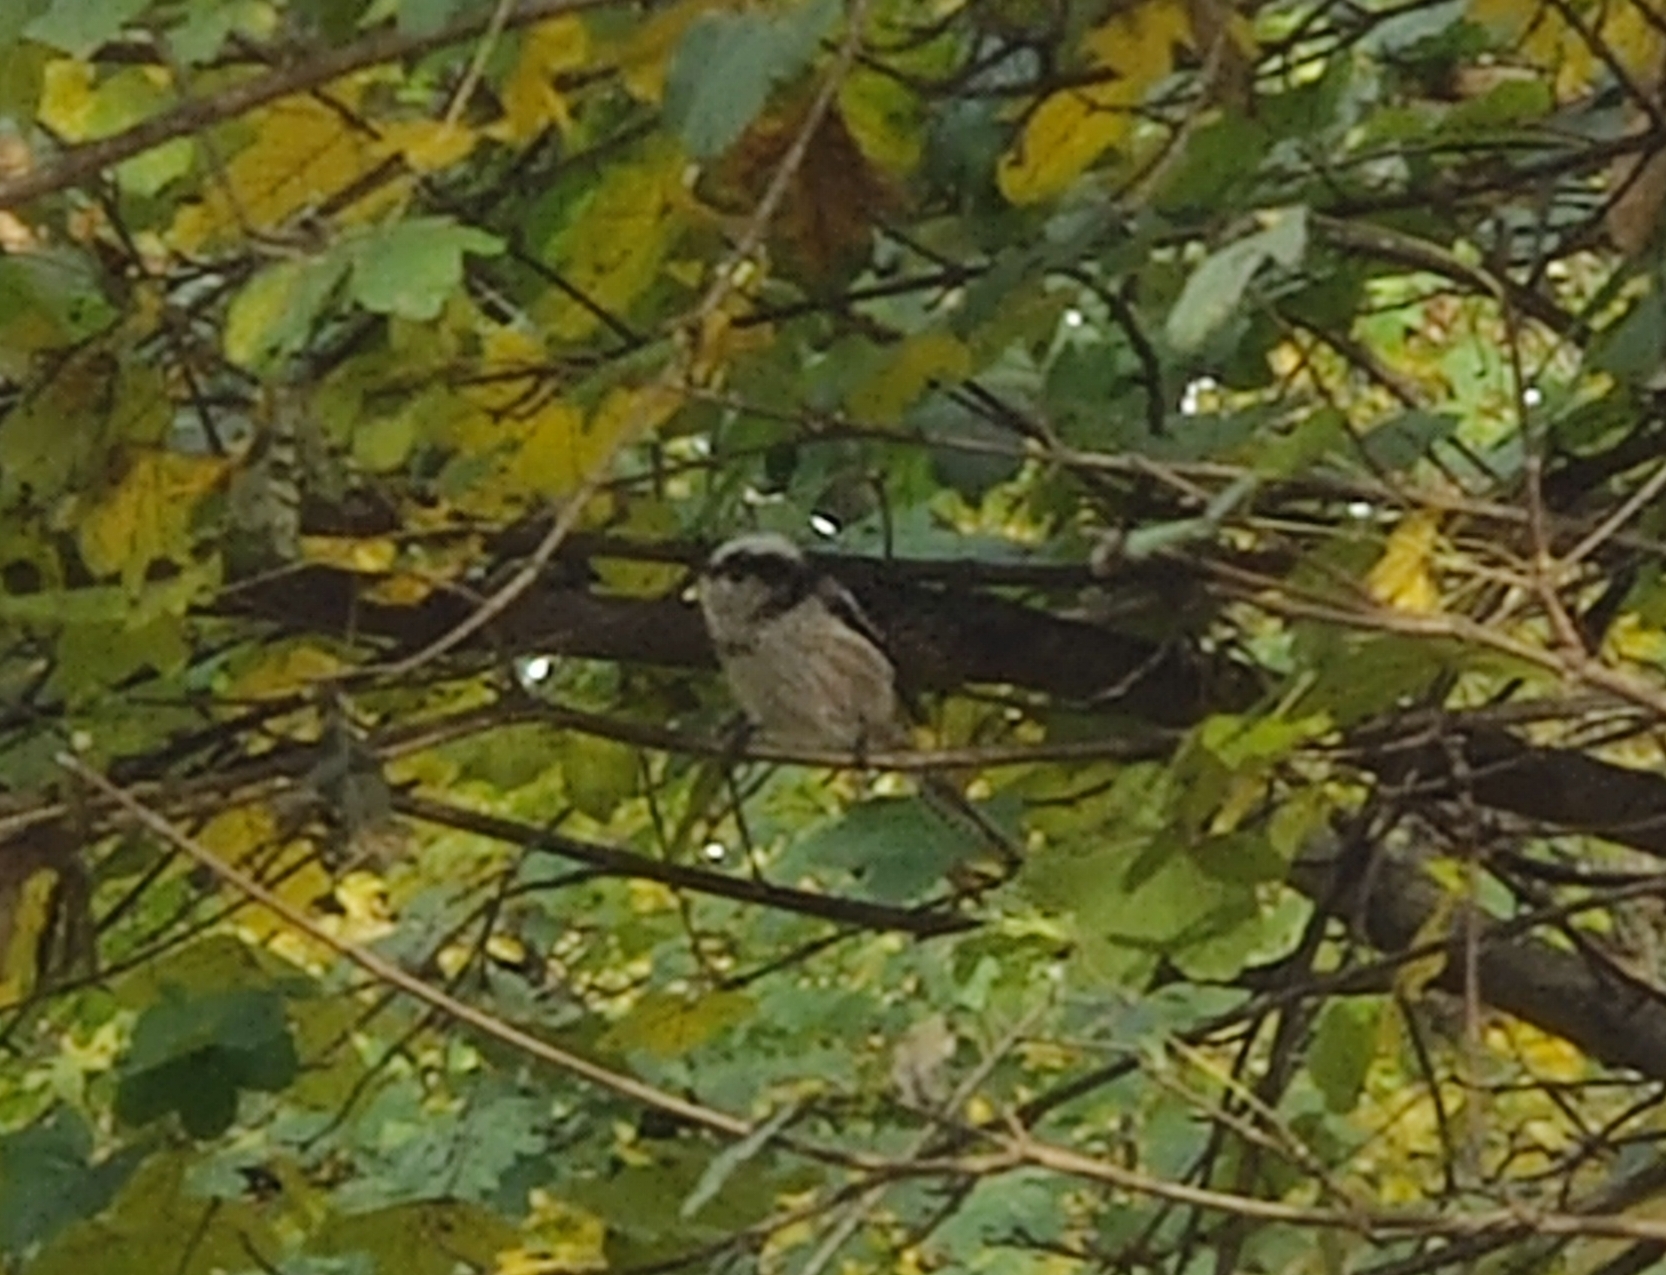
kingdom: Animalia
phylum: Chordata
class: Aves
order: Passeriformes
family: Aegithalidae
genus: Aegithalos
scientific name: Aegithalos caudatus
